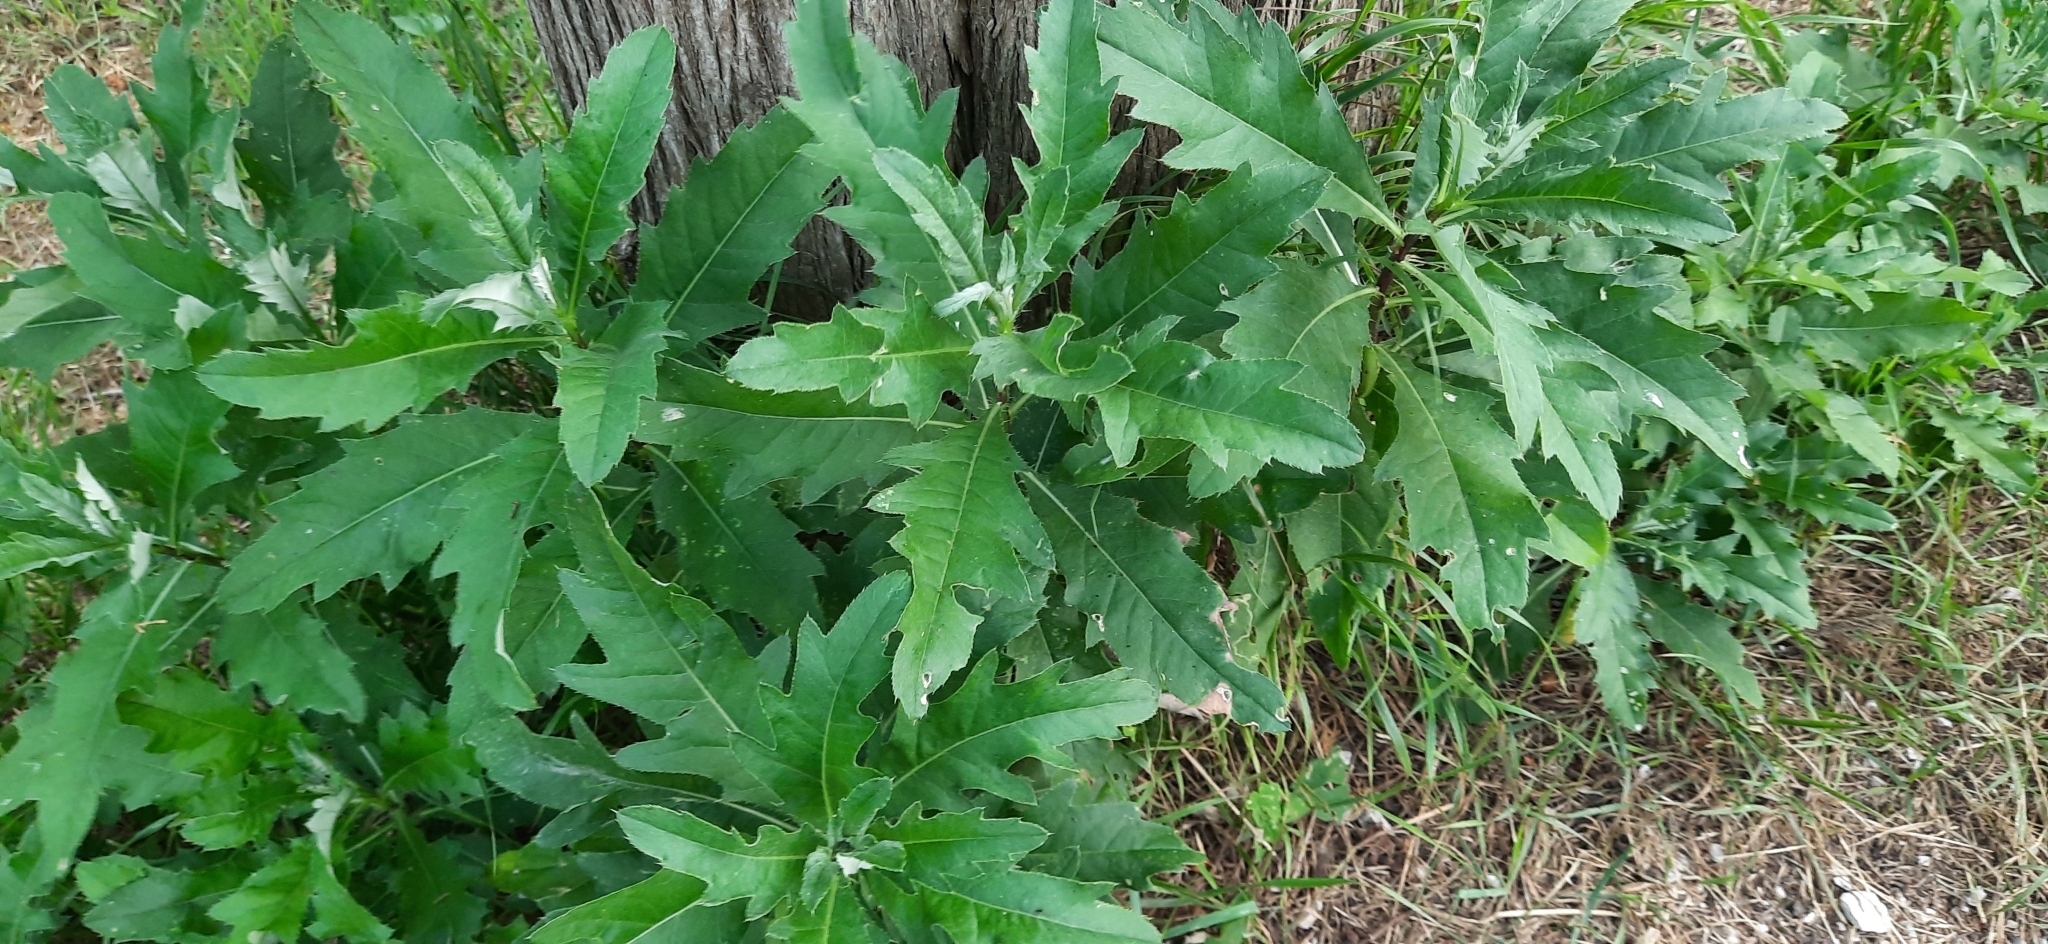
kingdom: Plantae
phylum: Tracheophyta
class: Magnoliopsida
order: Asterales
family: Asteraceae
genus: Cirsium
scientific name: Cirsium arvense
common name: Creeping thistle
